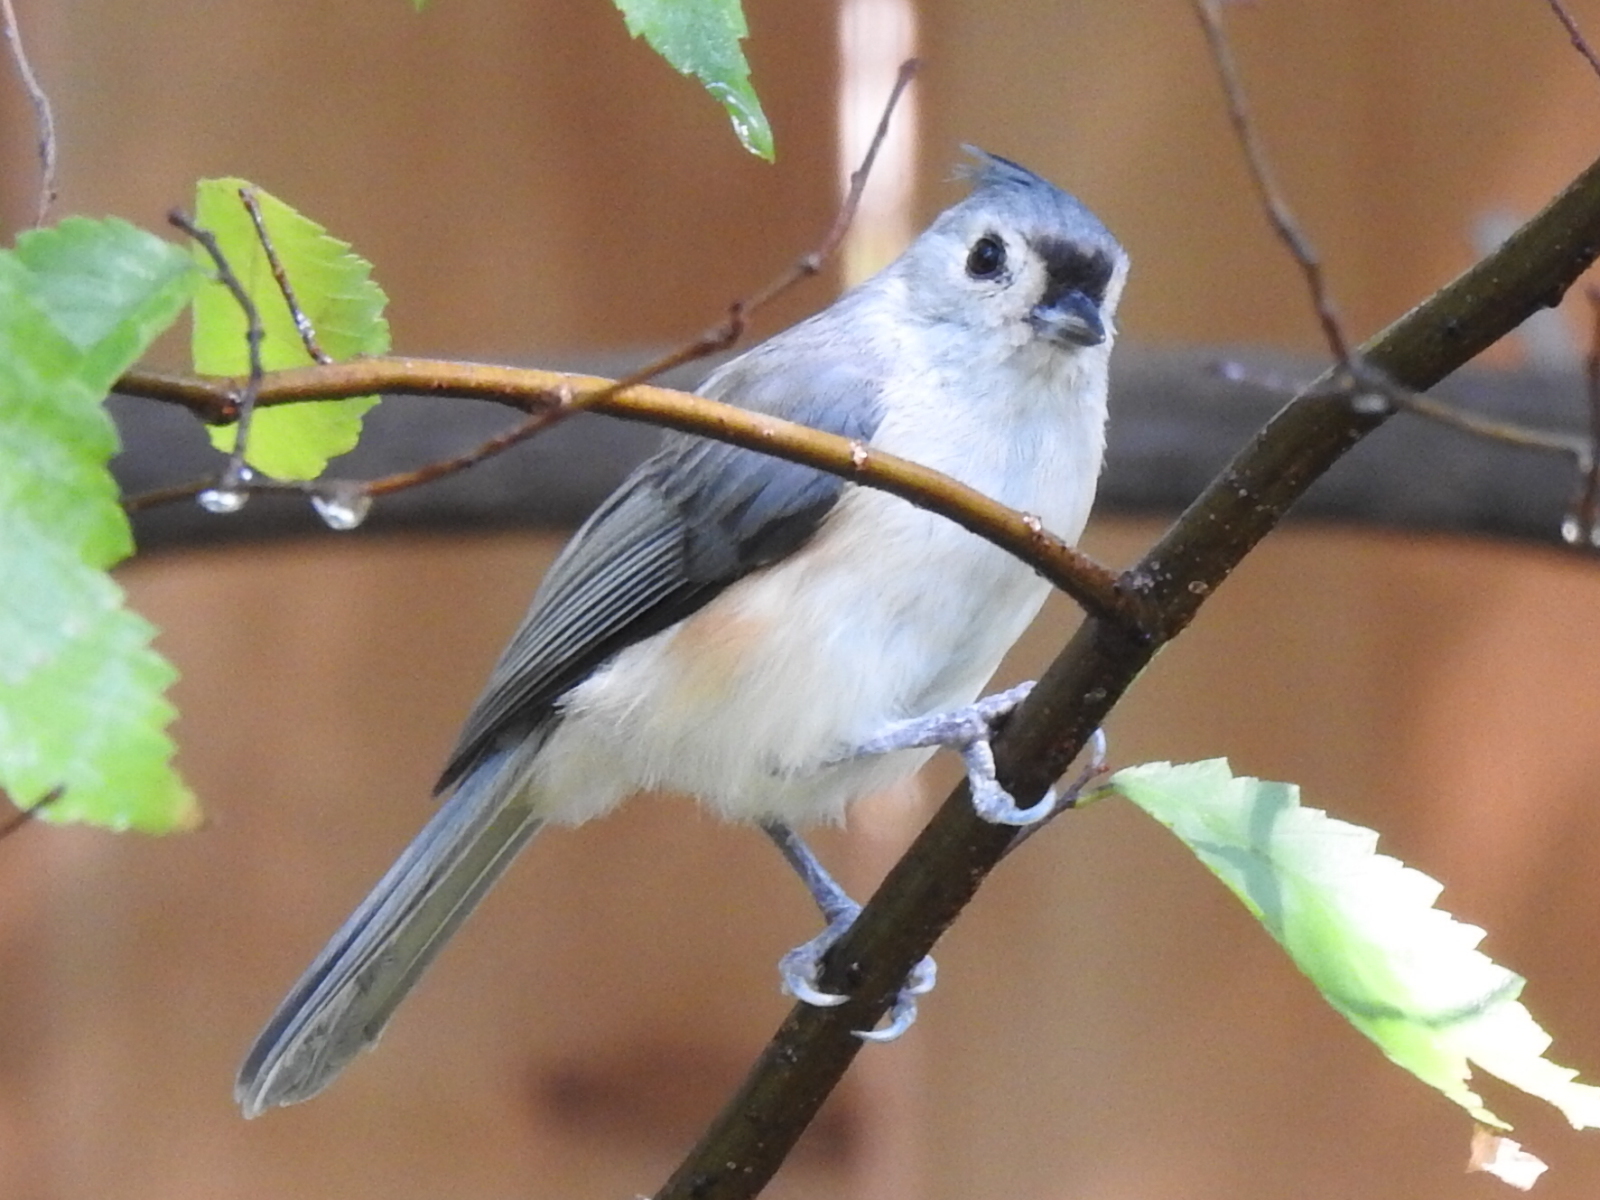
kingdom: Animalia
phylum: Chordata
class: Aves
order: Passeriformes
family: Paridae
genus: Baeolophus
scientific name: Baeolophus bicolor
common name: Tufted titmouse
